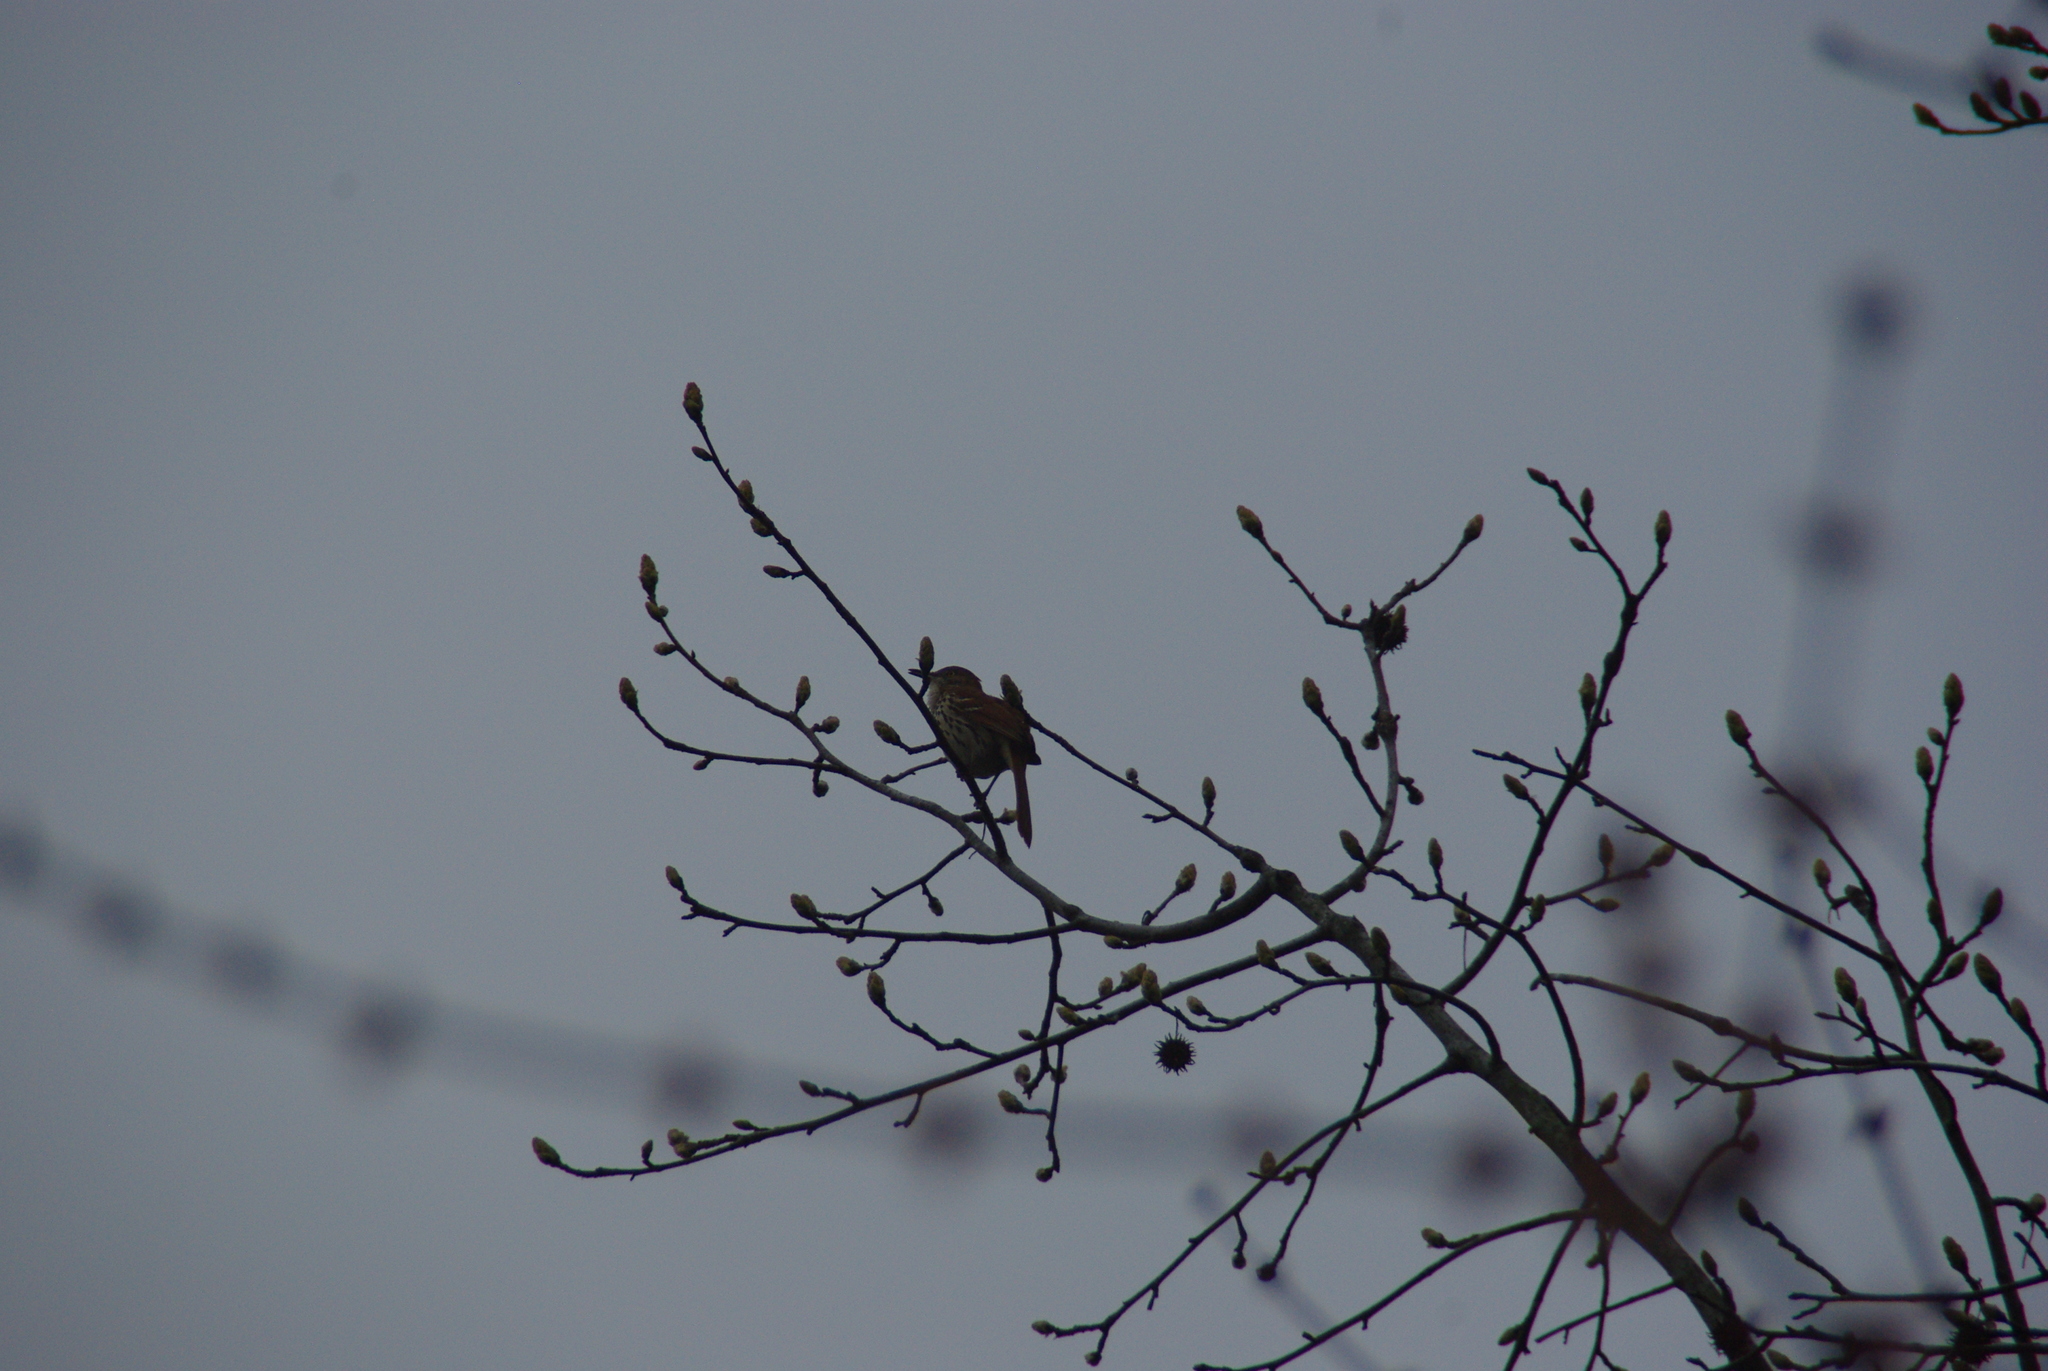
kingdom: Animalia
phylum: Chordata
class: Aves
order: Passeriformes
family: Mimidae
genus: Toxostoma
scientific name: Toxostoma rufum
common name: Brown thrasher
